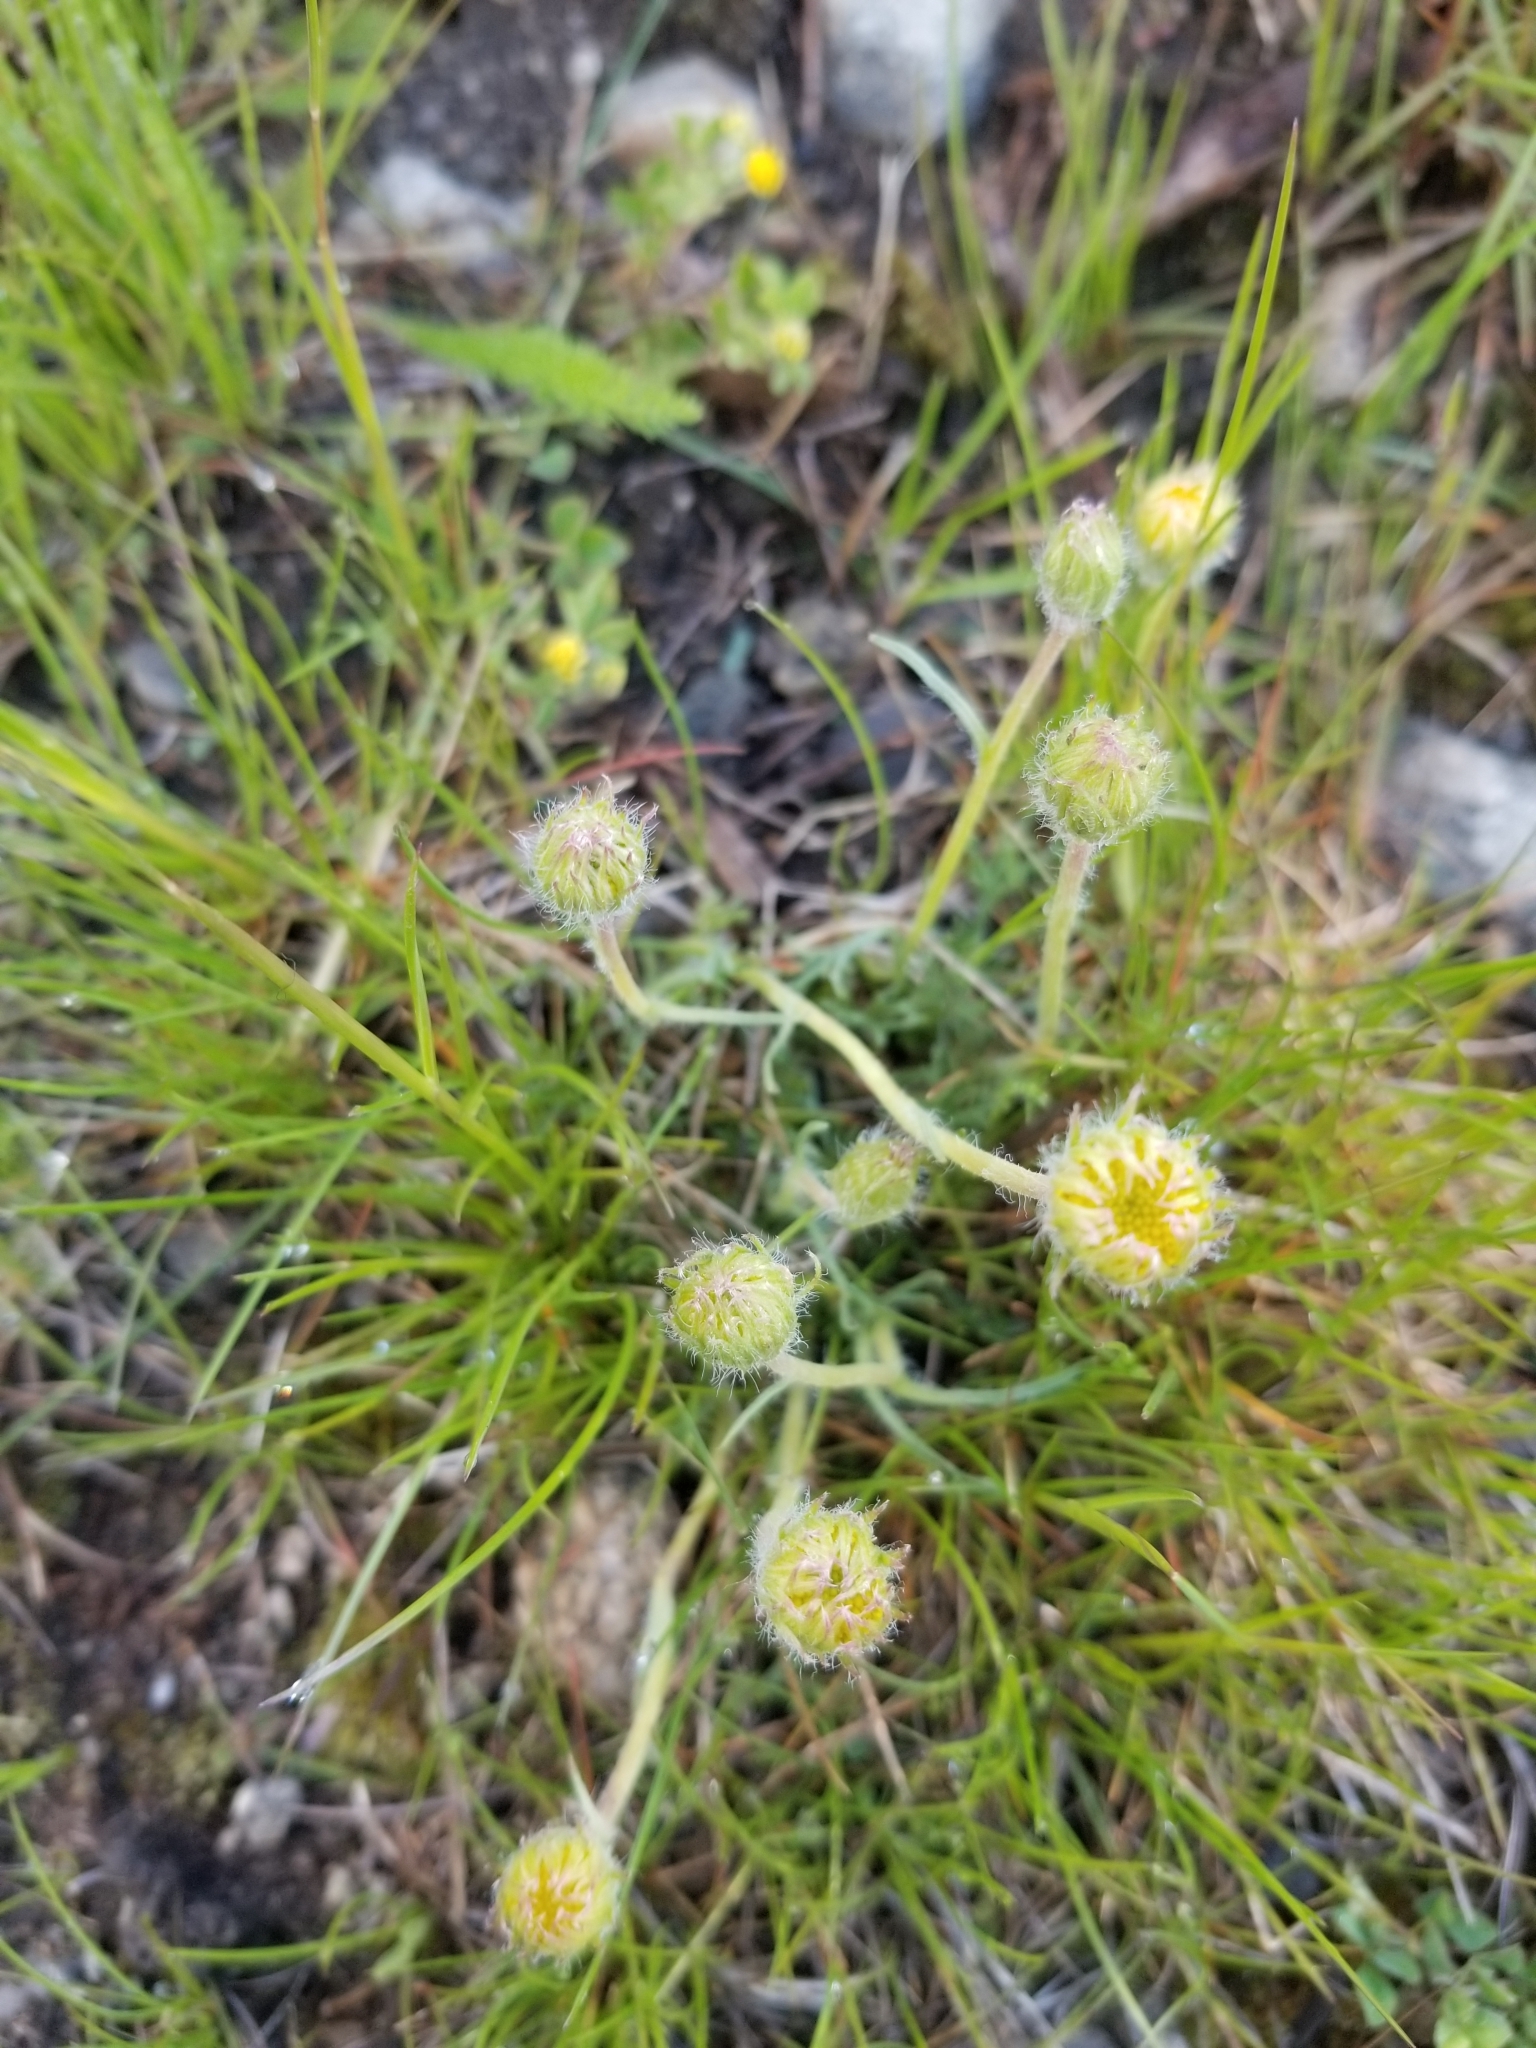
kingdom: Plantae
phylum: Tracheophyta
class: Magnoliopsida
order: Asterales
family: Asteraceae
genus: Erigeron
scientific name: Erigeron compositus
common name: Dwarf mountain fleabane
